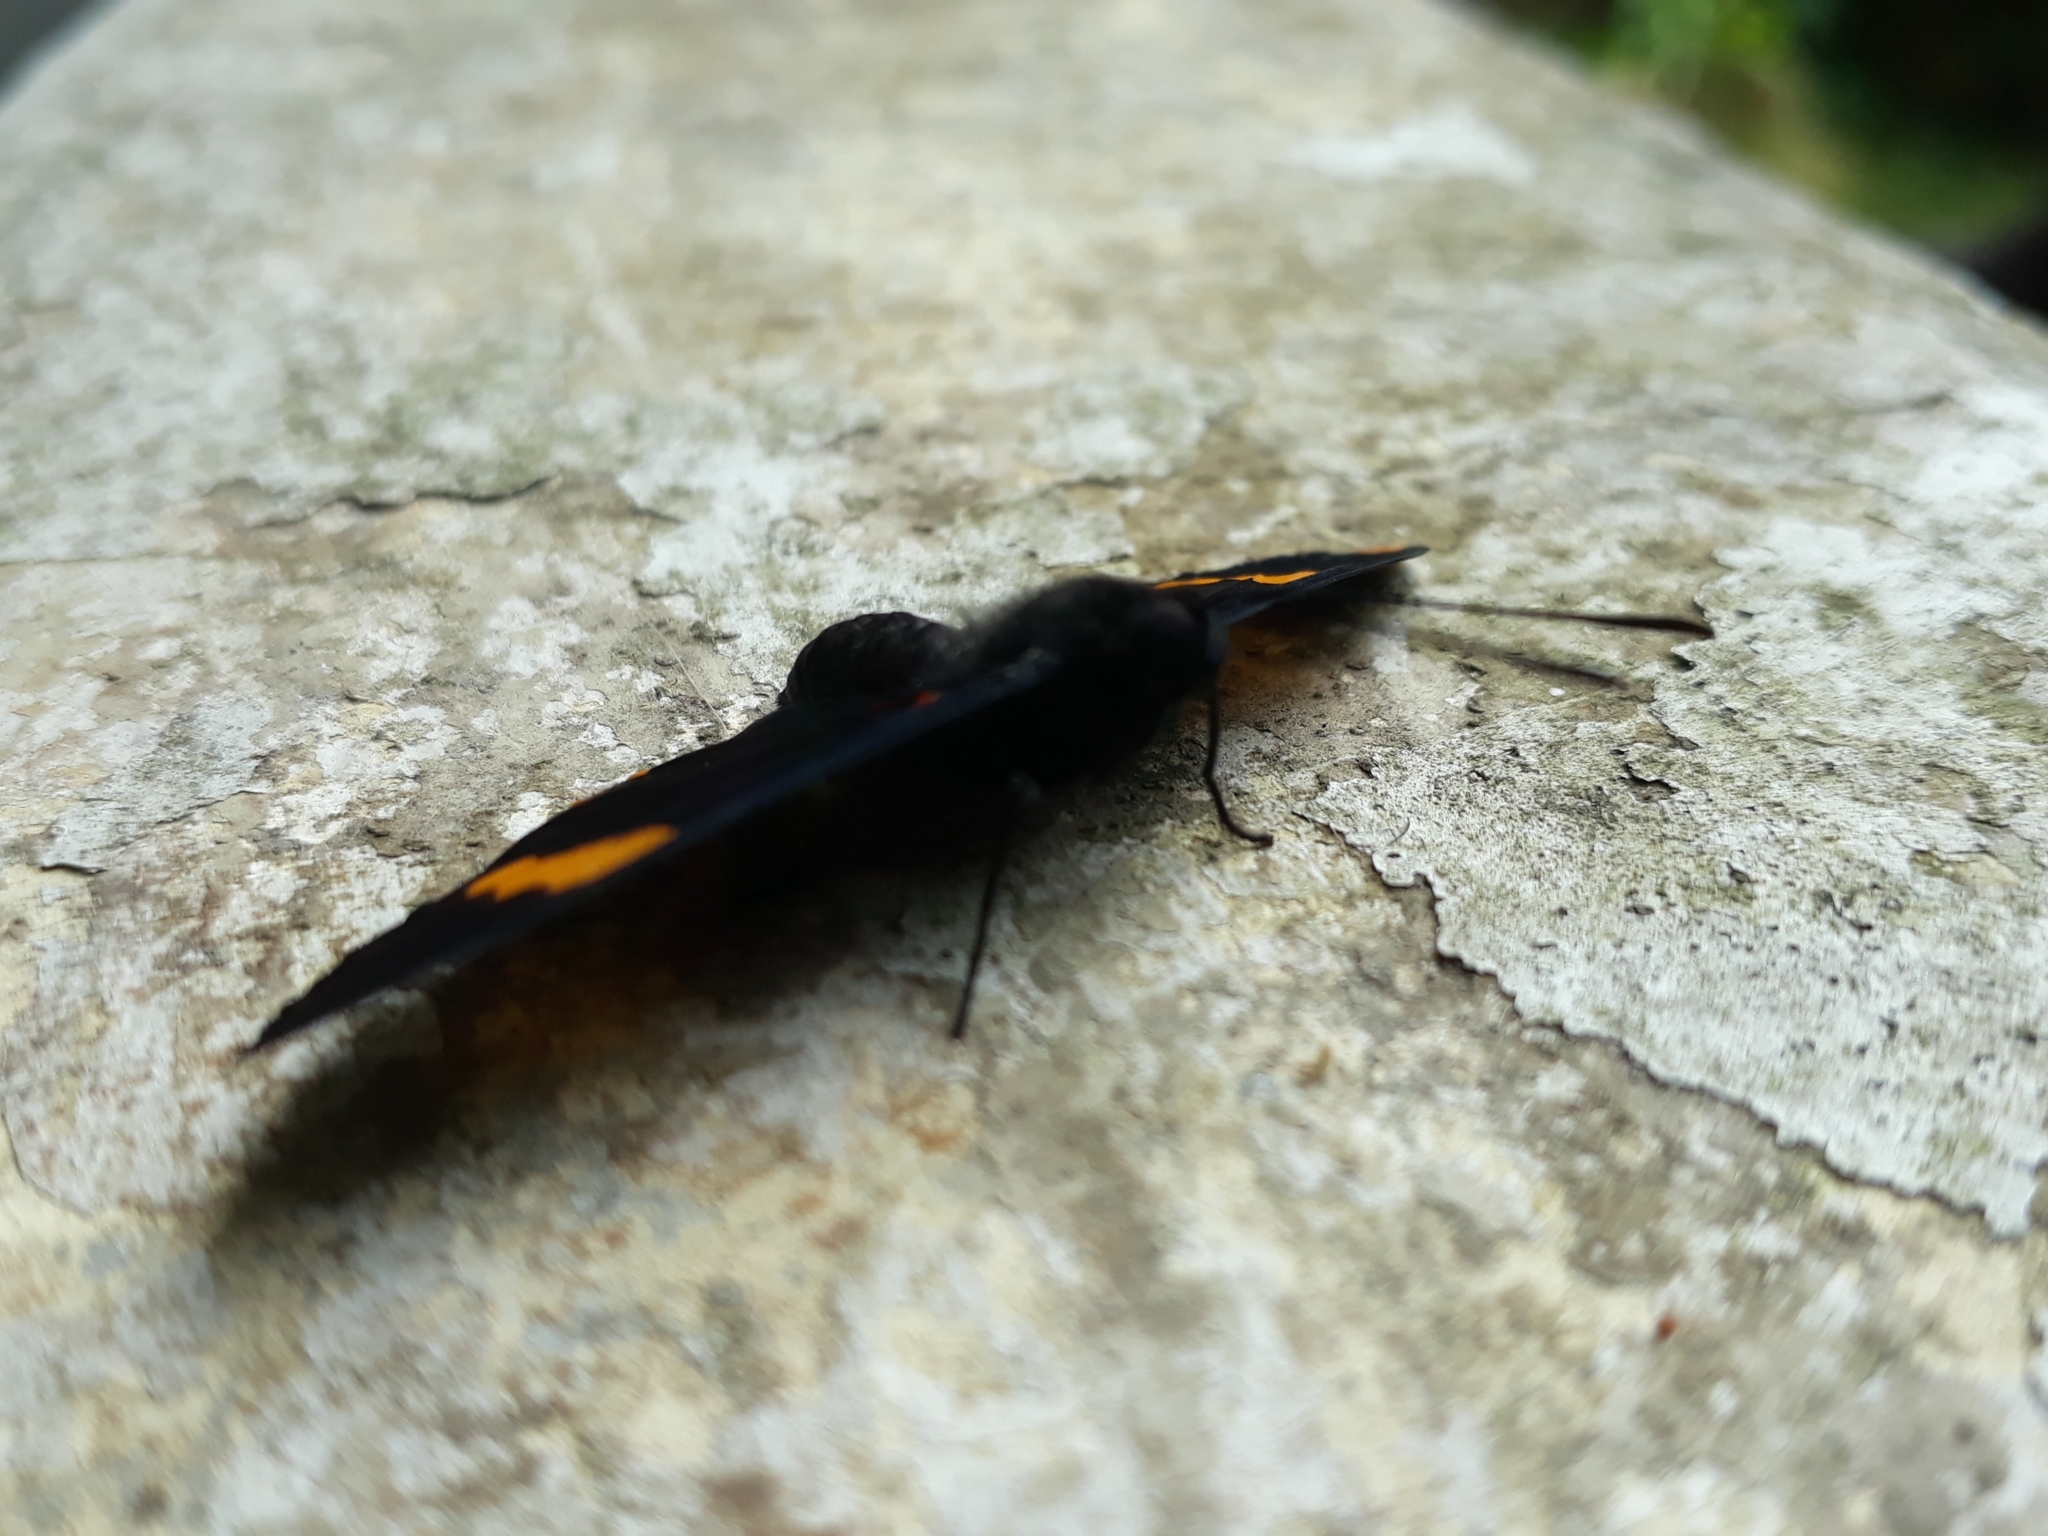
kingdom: Animalia
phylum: Arthropoda
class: Insecta
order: Lepidoptera
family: Lycaenidae
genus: Melanis
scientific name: Melanis electron
